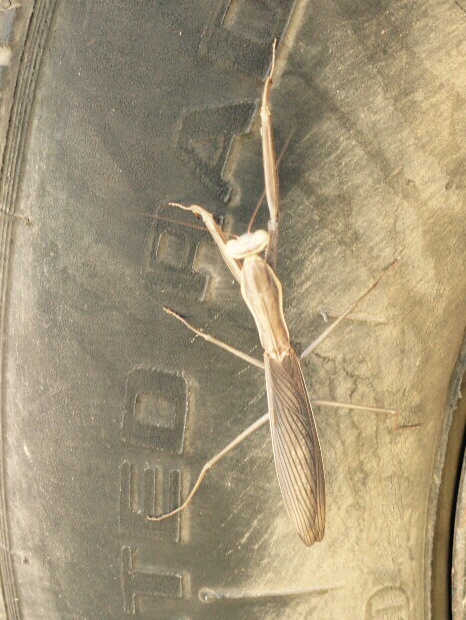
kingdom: Animalia
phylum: Arthropoda
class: Insecta
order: Mantodea
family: Mantidae
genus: Mantis
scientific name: Mantis religiosa
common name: Praying mantis
